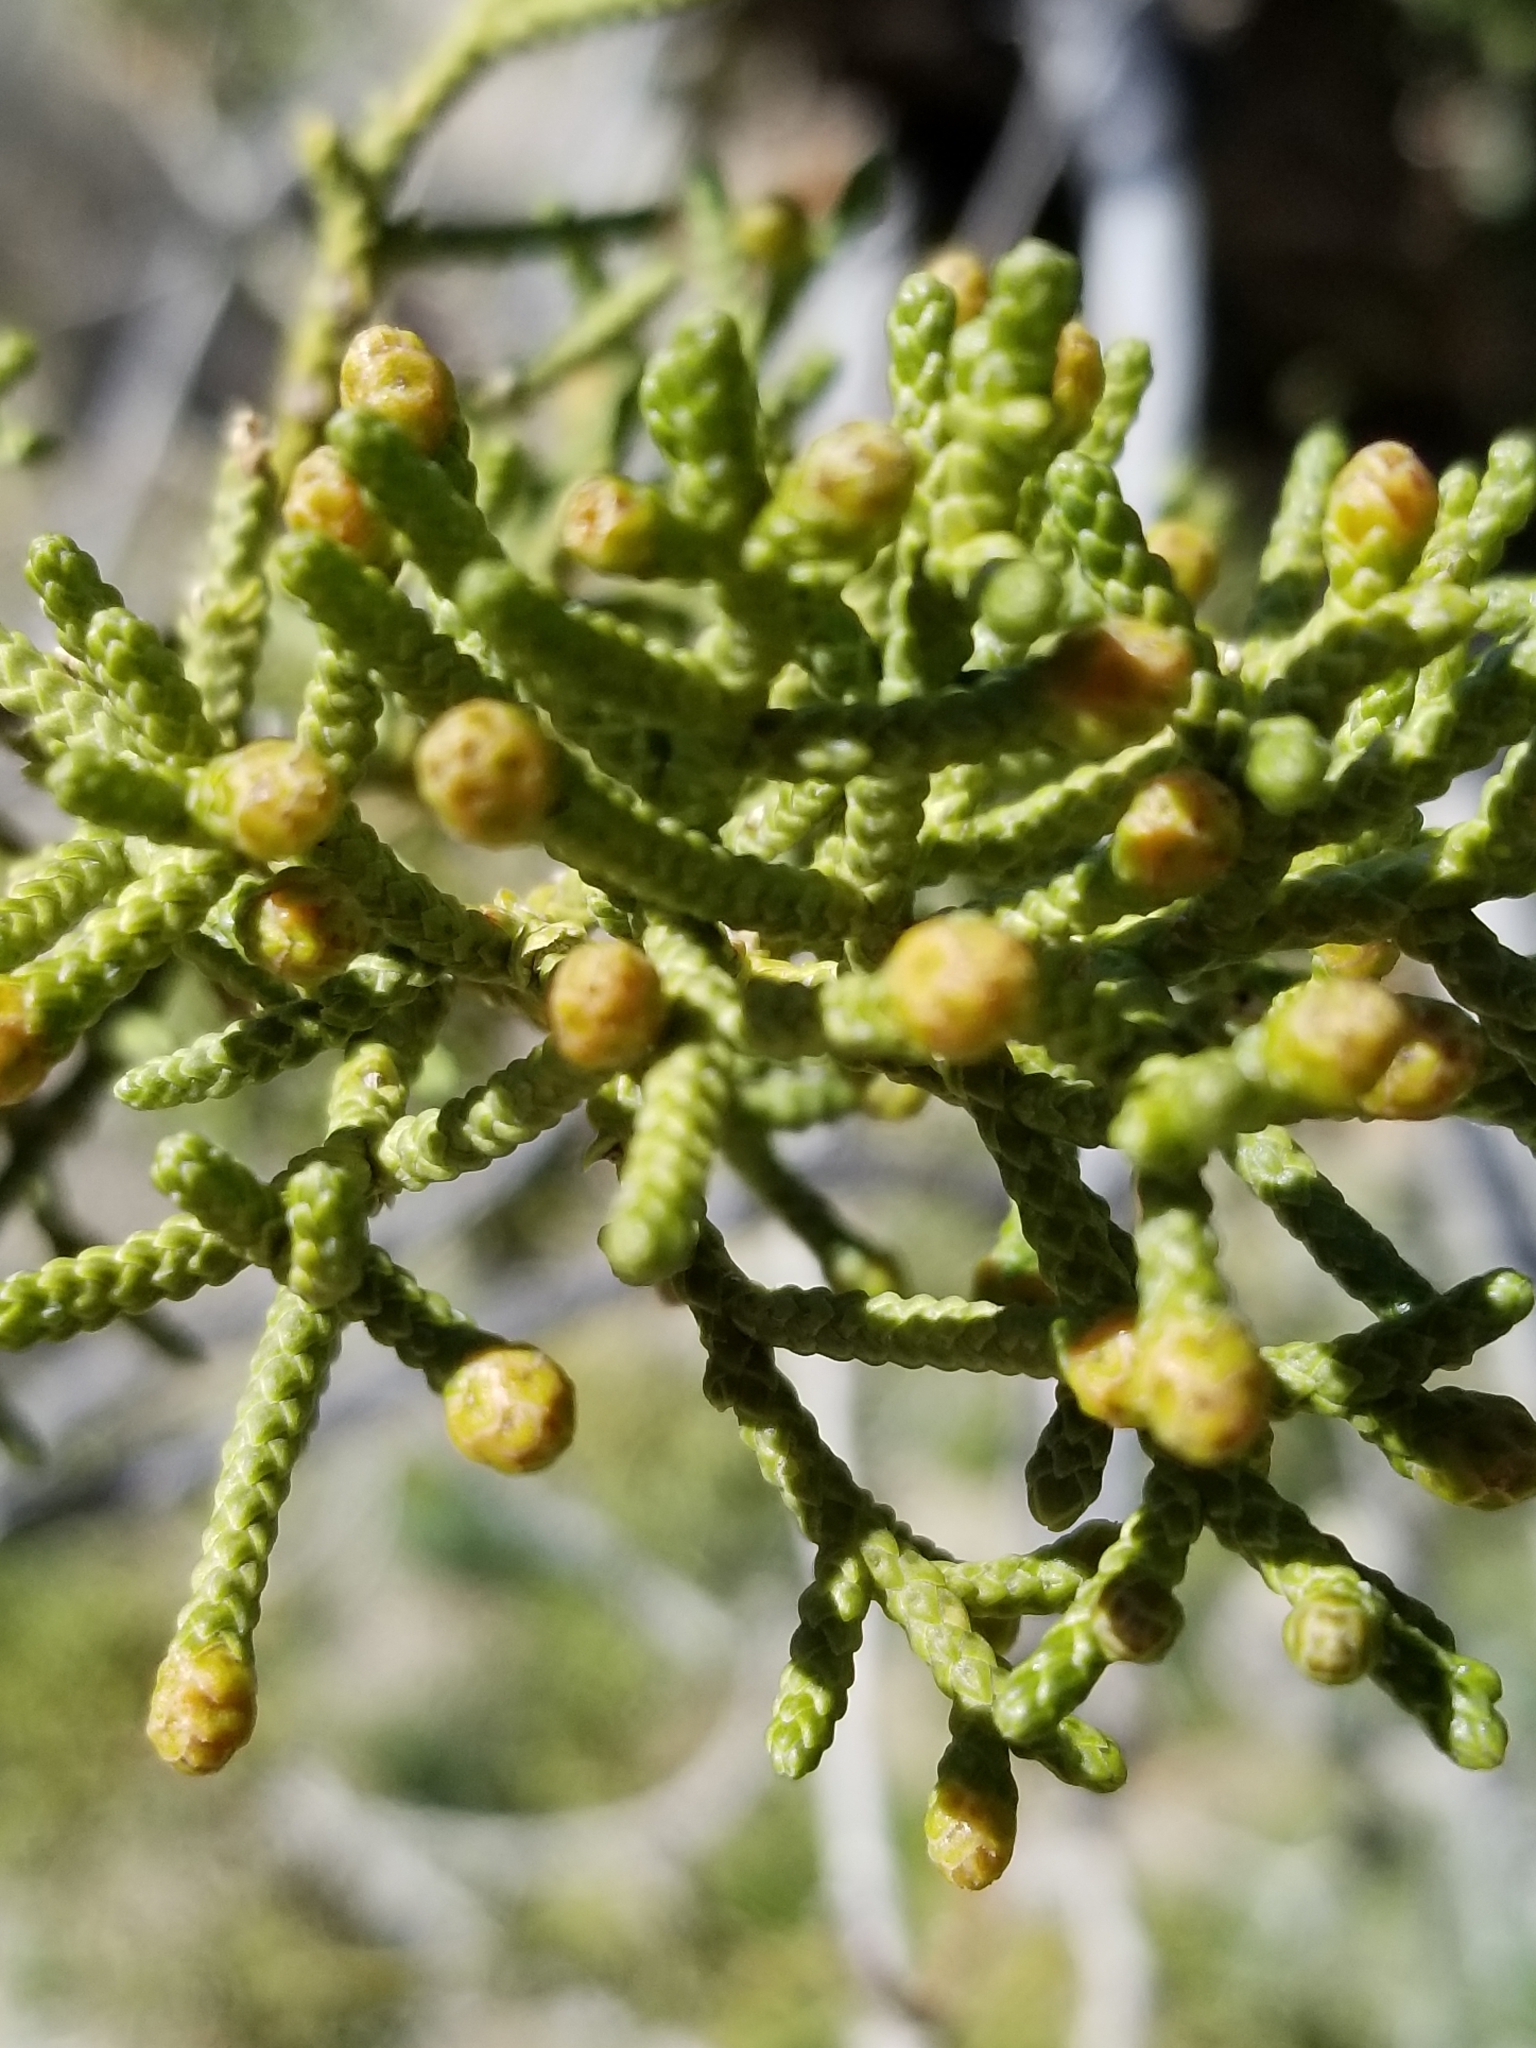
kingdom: Plantae
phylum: Tracheophyta
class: Pinopsida
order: Pinales
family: Cupressaceae
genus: Juniperus
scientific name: Juniperus californica
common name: California juniper
